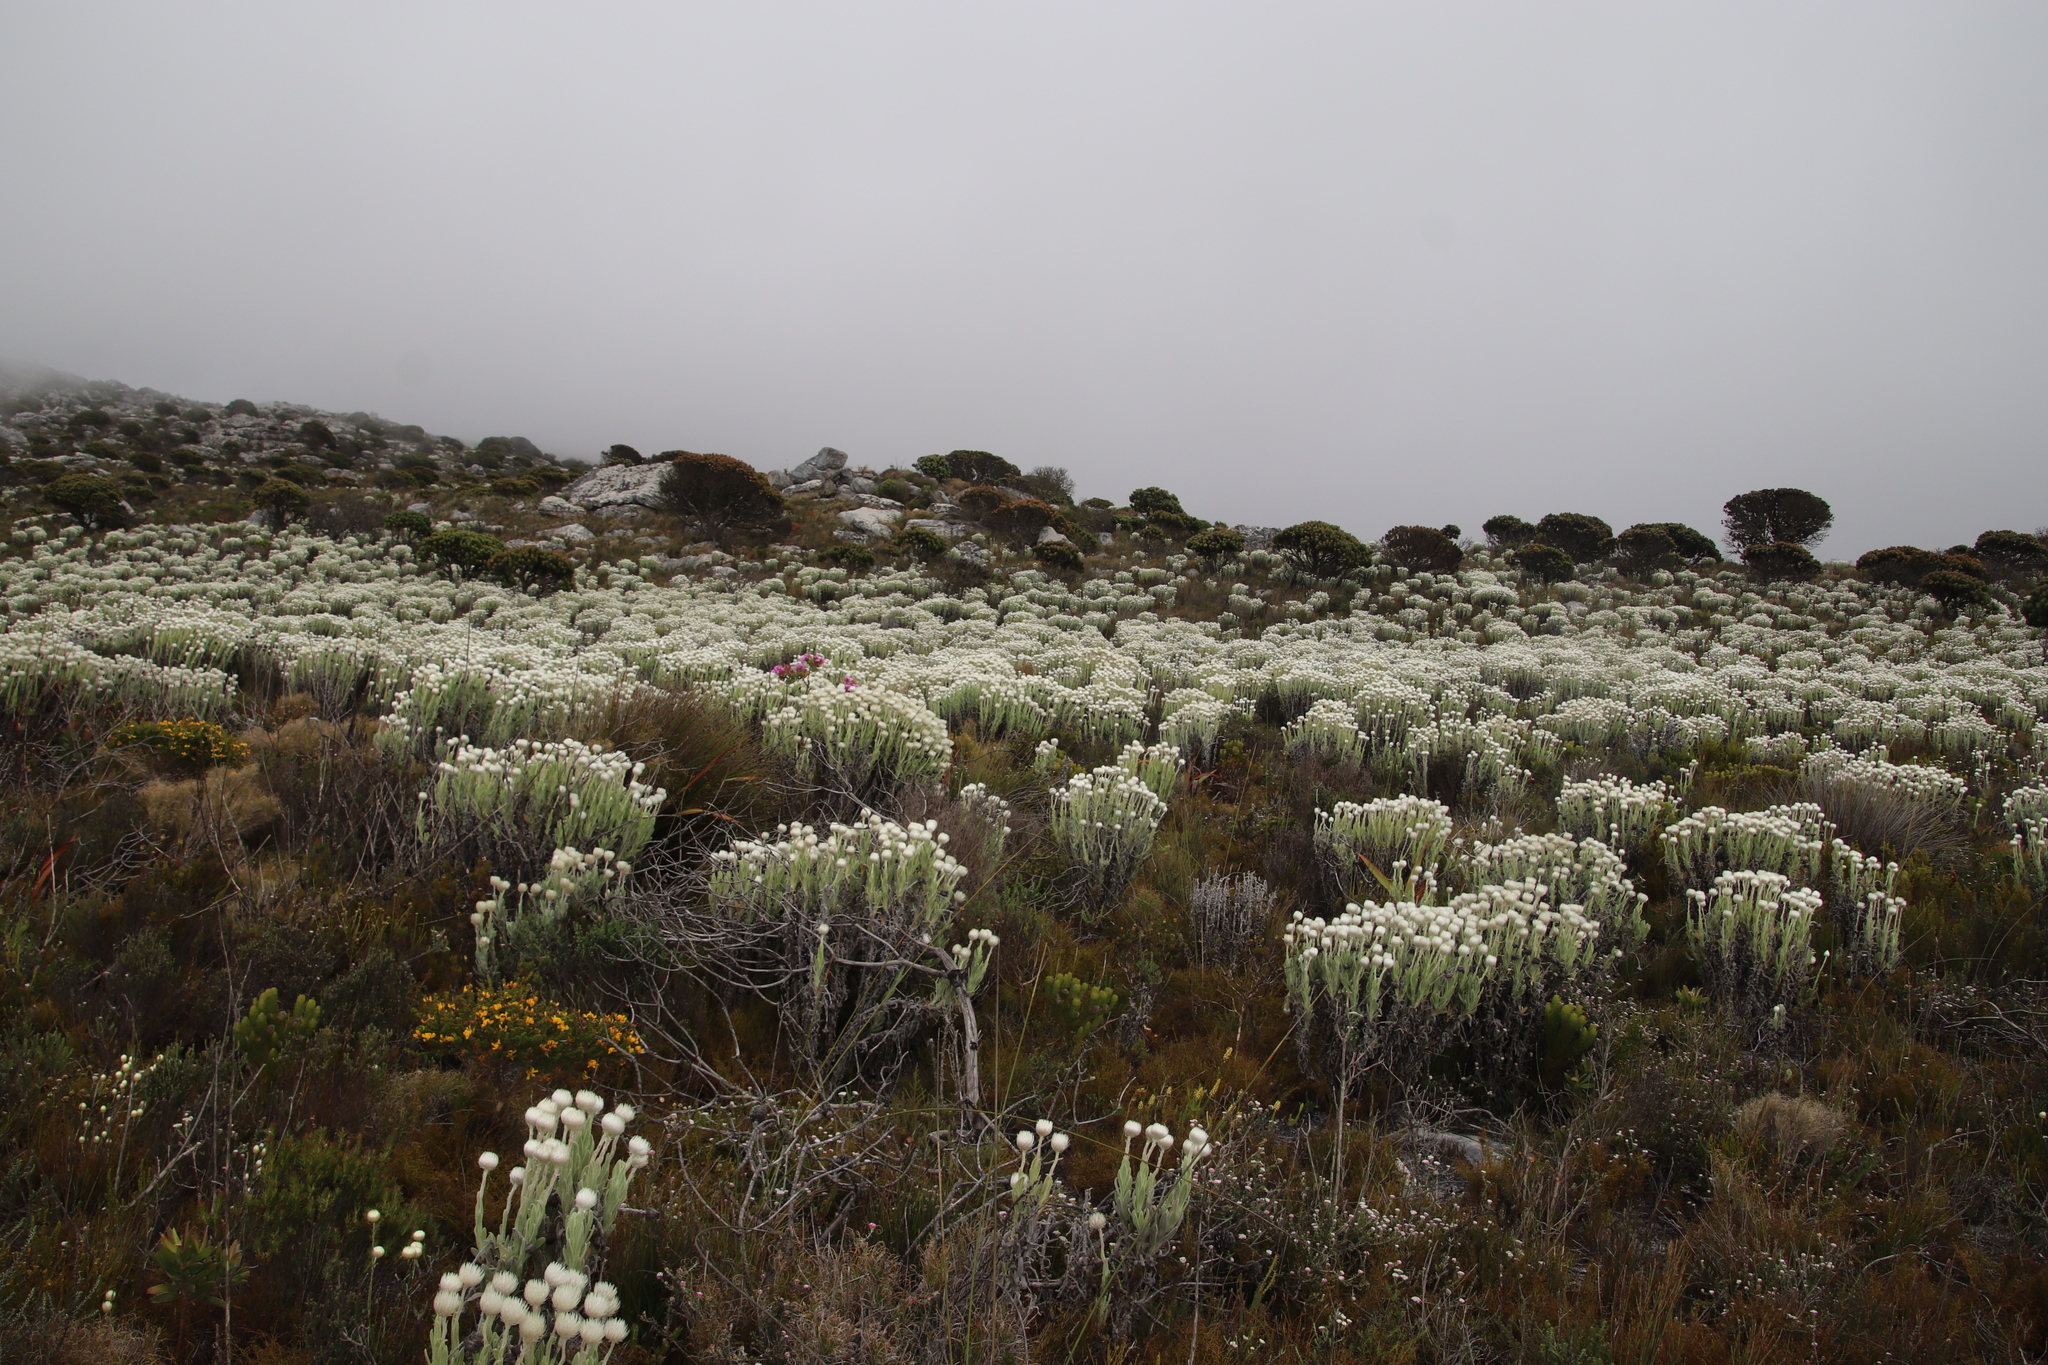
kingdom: Plantae
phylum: Tracheophyta
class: Magnoliopsida
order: Asterales
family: Asteraceae
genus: Syncarpha
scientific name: Syncarpha vestita
